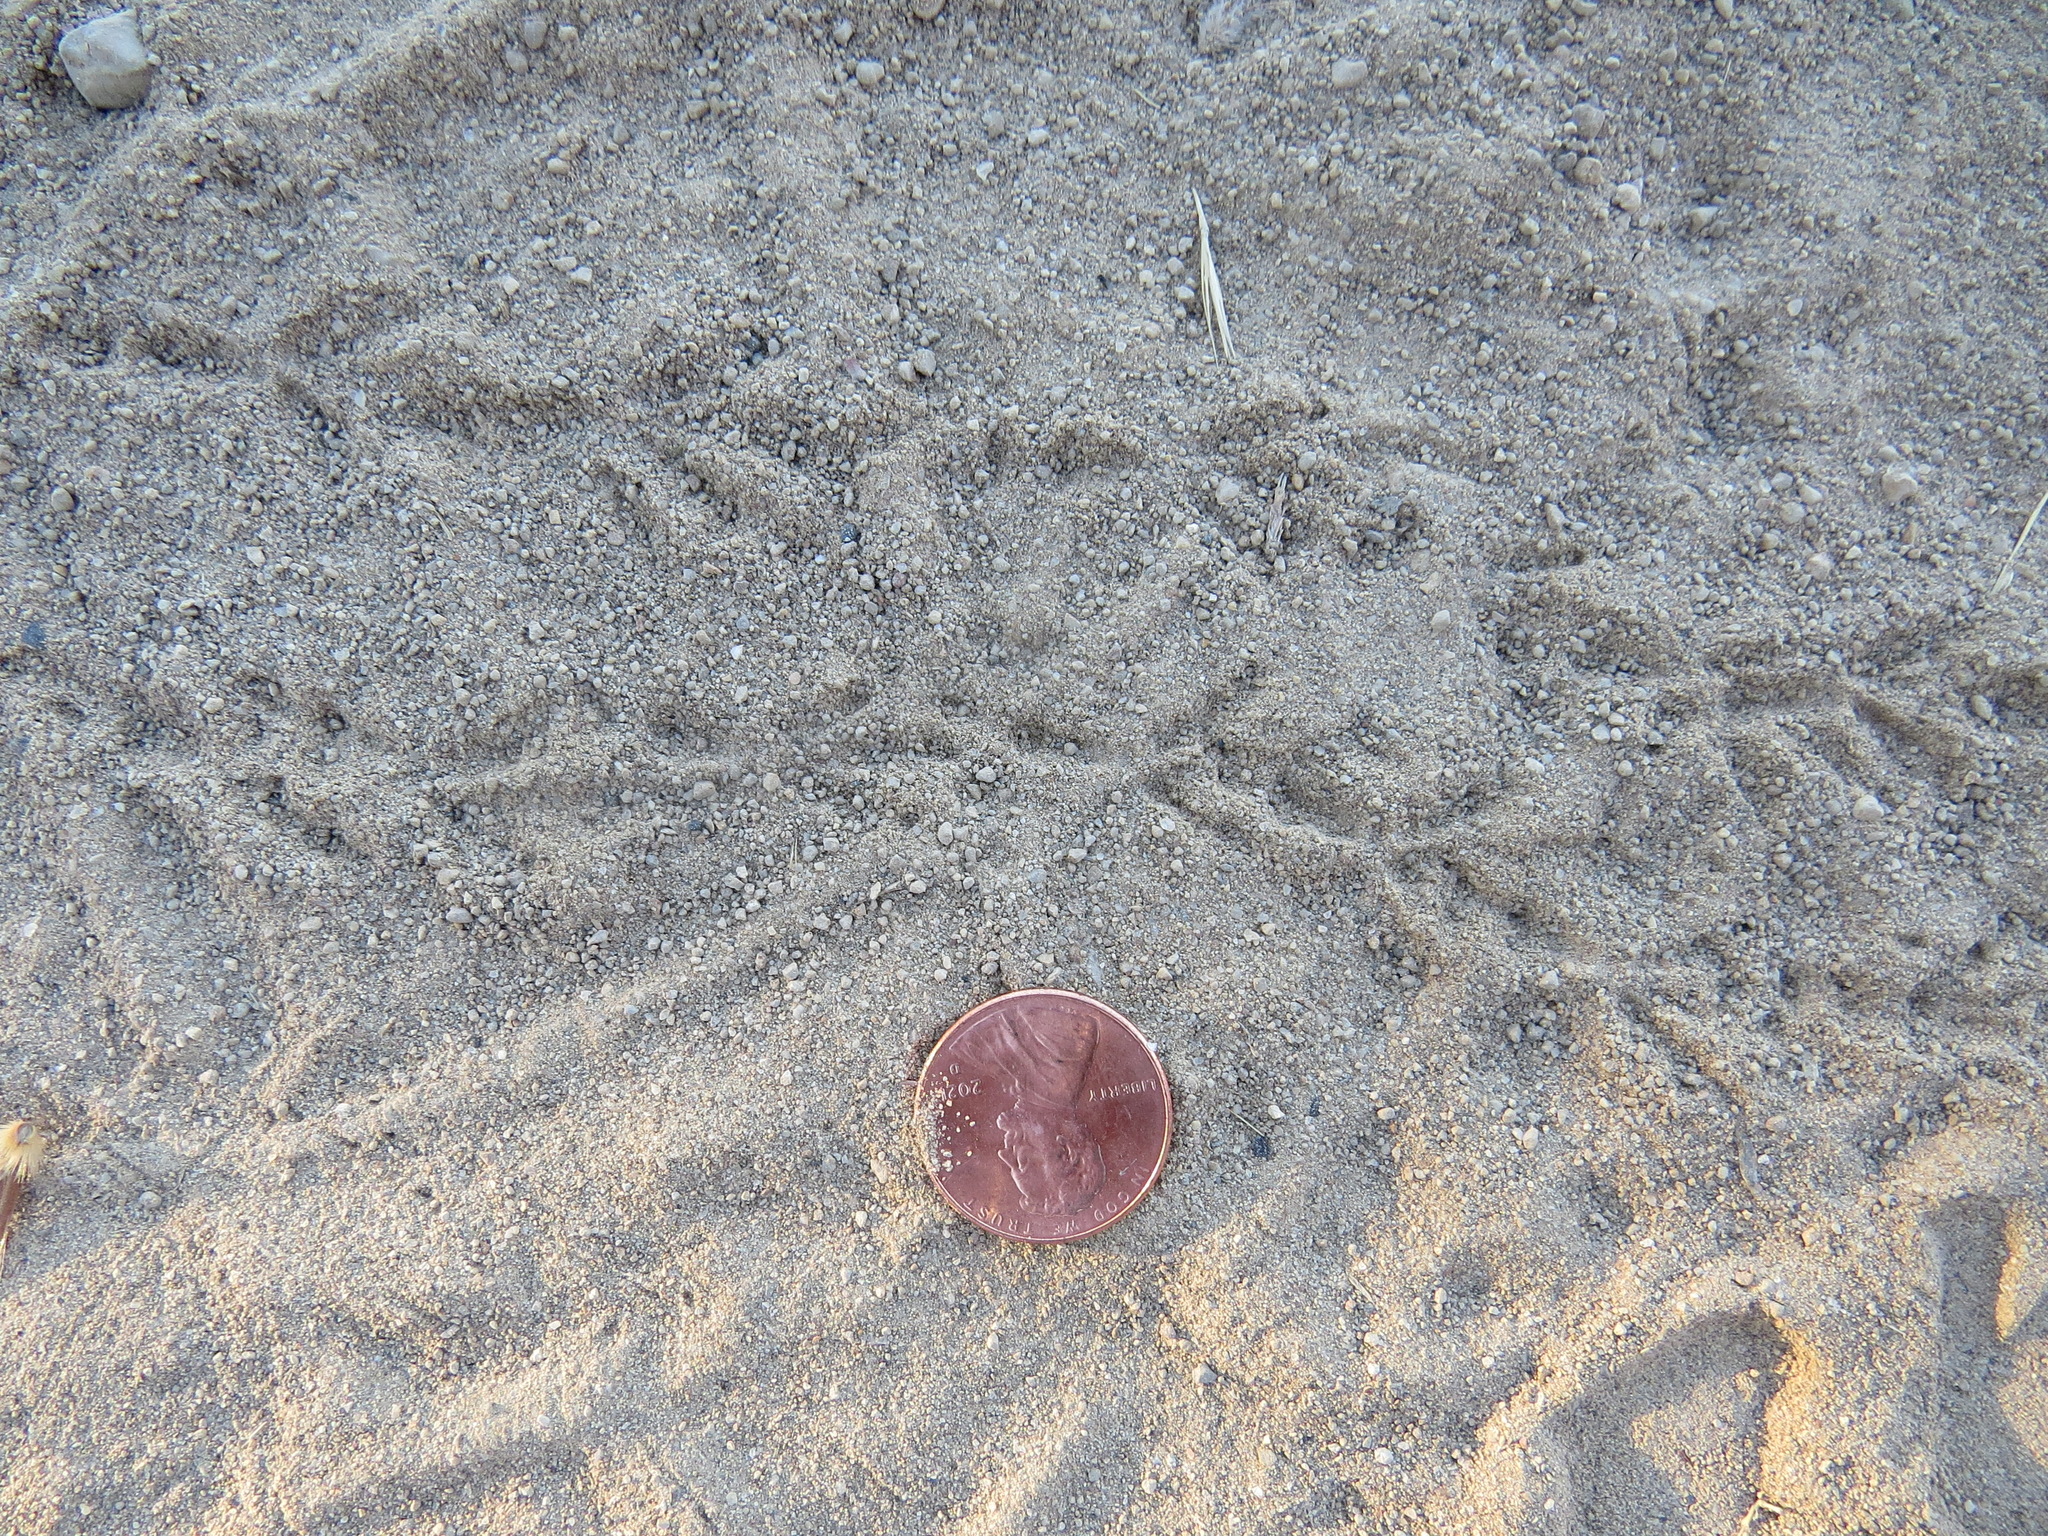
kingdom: Animalia
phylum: Chordata
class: Aves
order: Passeriformes
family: Passerellidae
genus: Junco
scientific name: Junco hyemalis
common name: Dark-eyed junco
